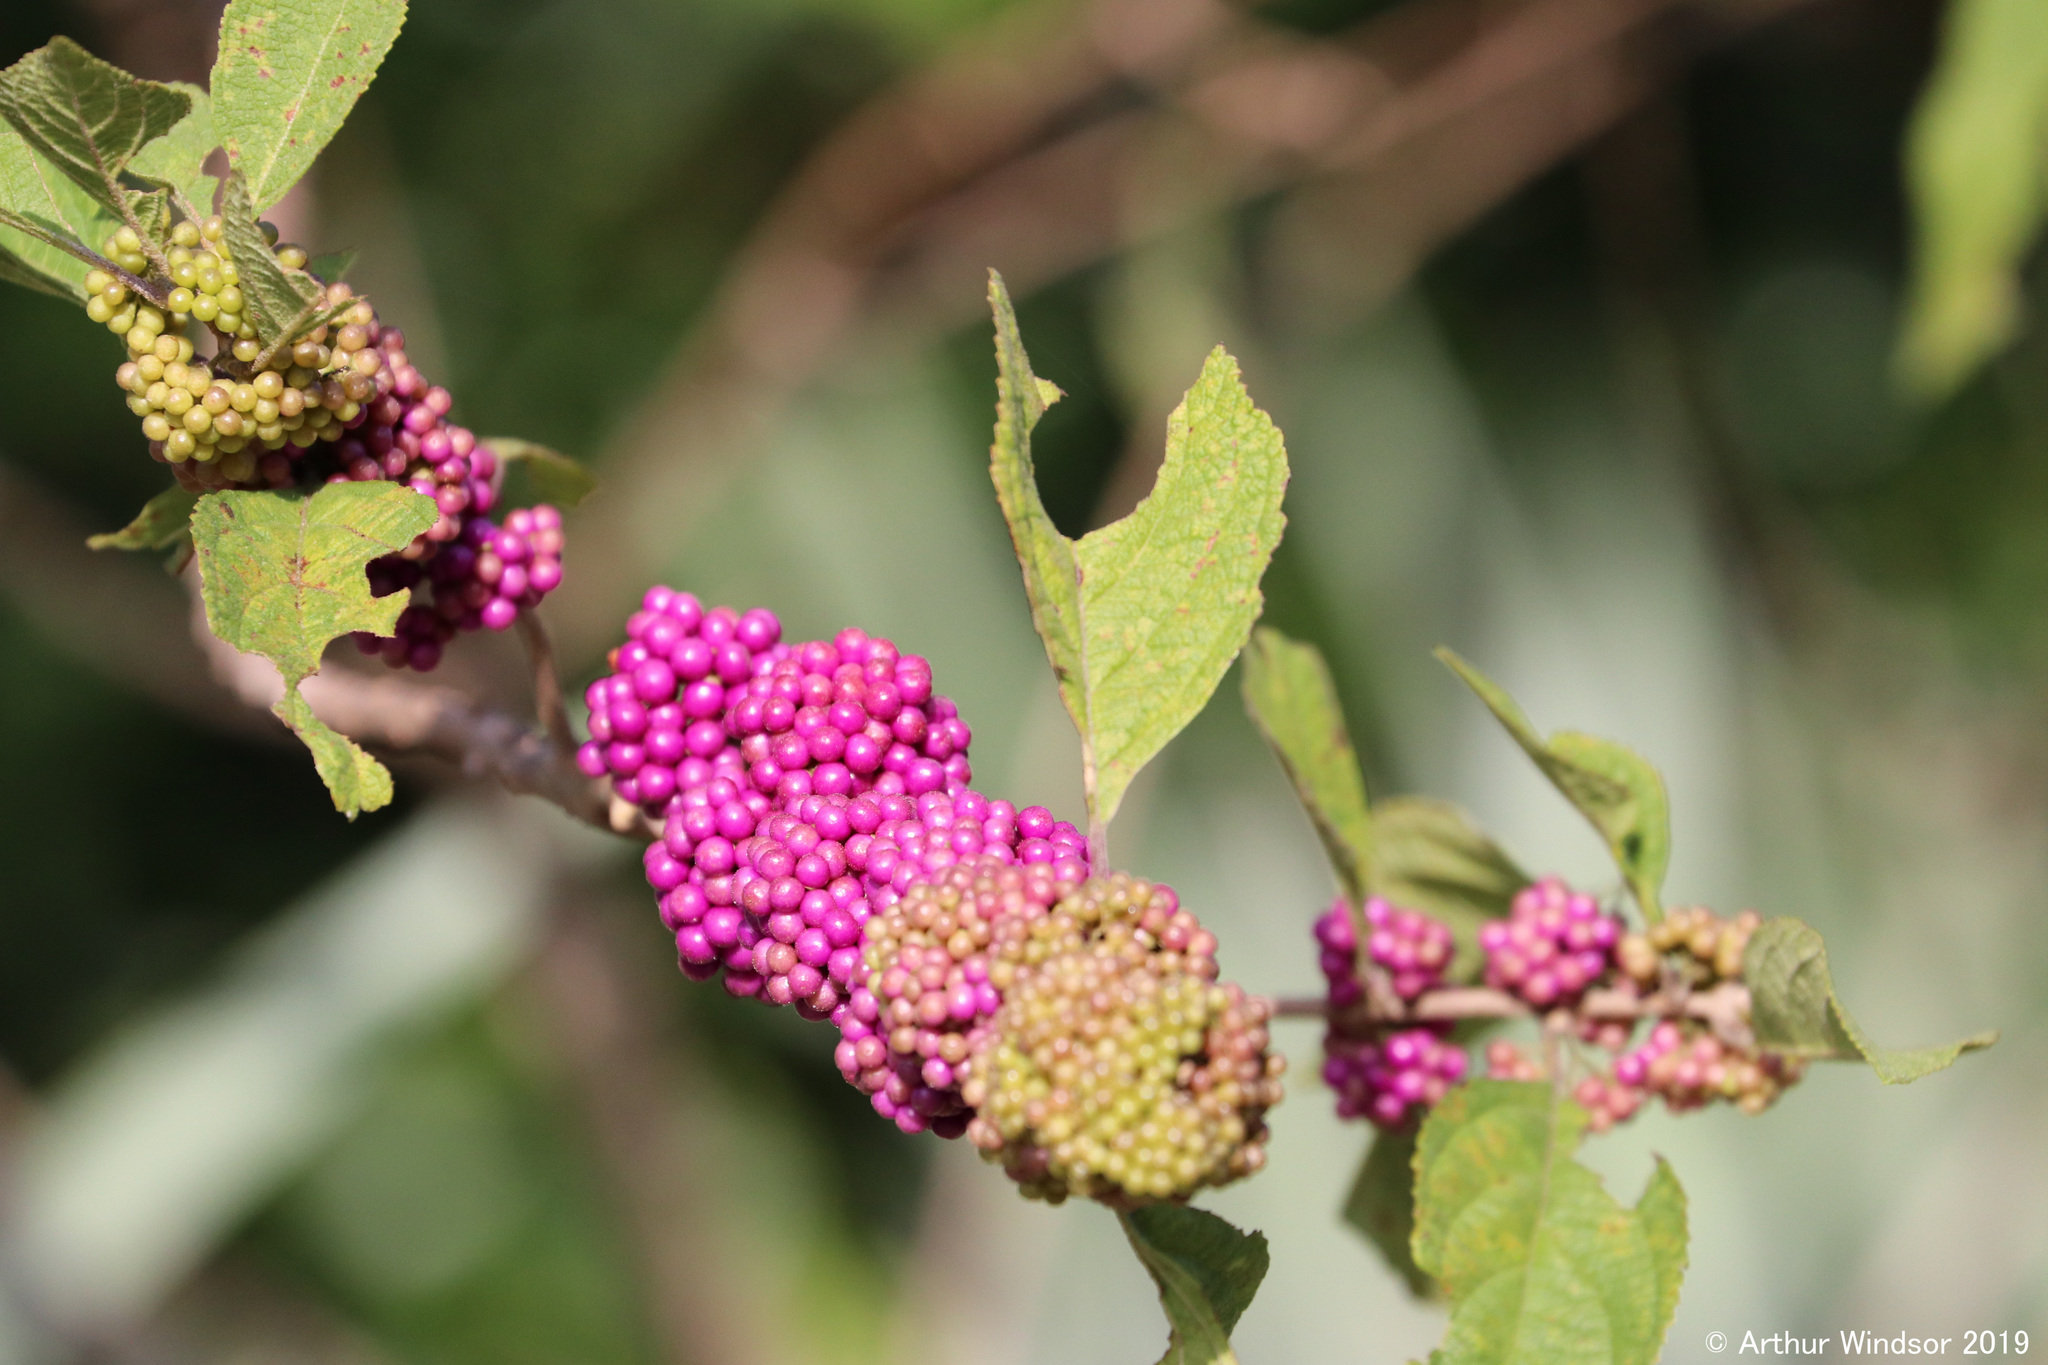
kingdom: Plantae
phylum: Tracheophyta
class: Magnoliopsida
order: Lamiales
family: Lamiaceae
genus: Callicarpa
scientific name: Callicarpa americana
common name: American beautyberry
